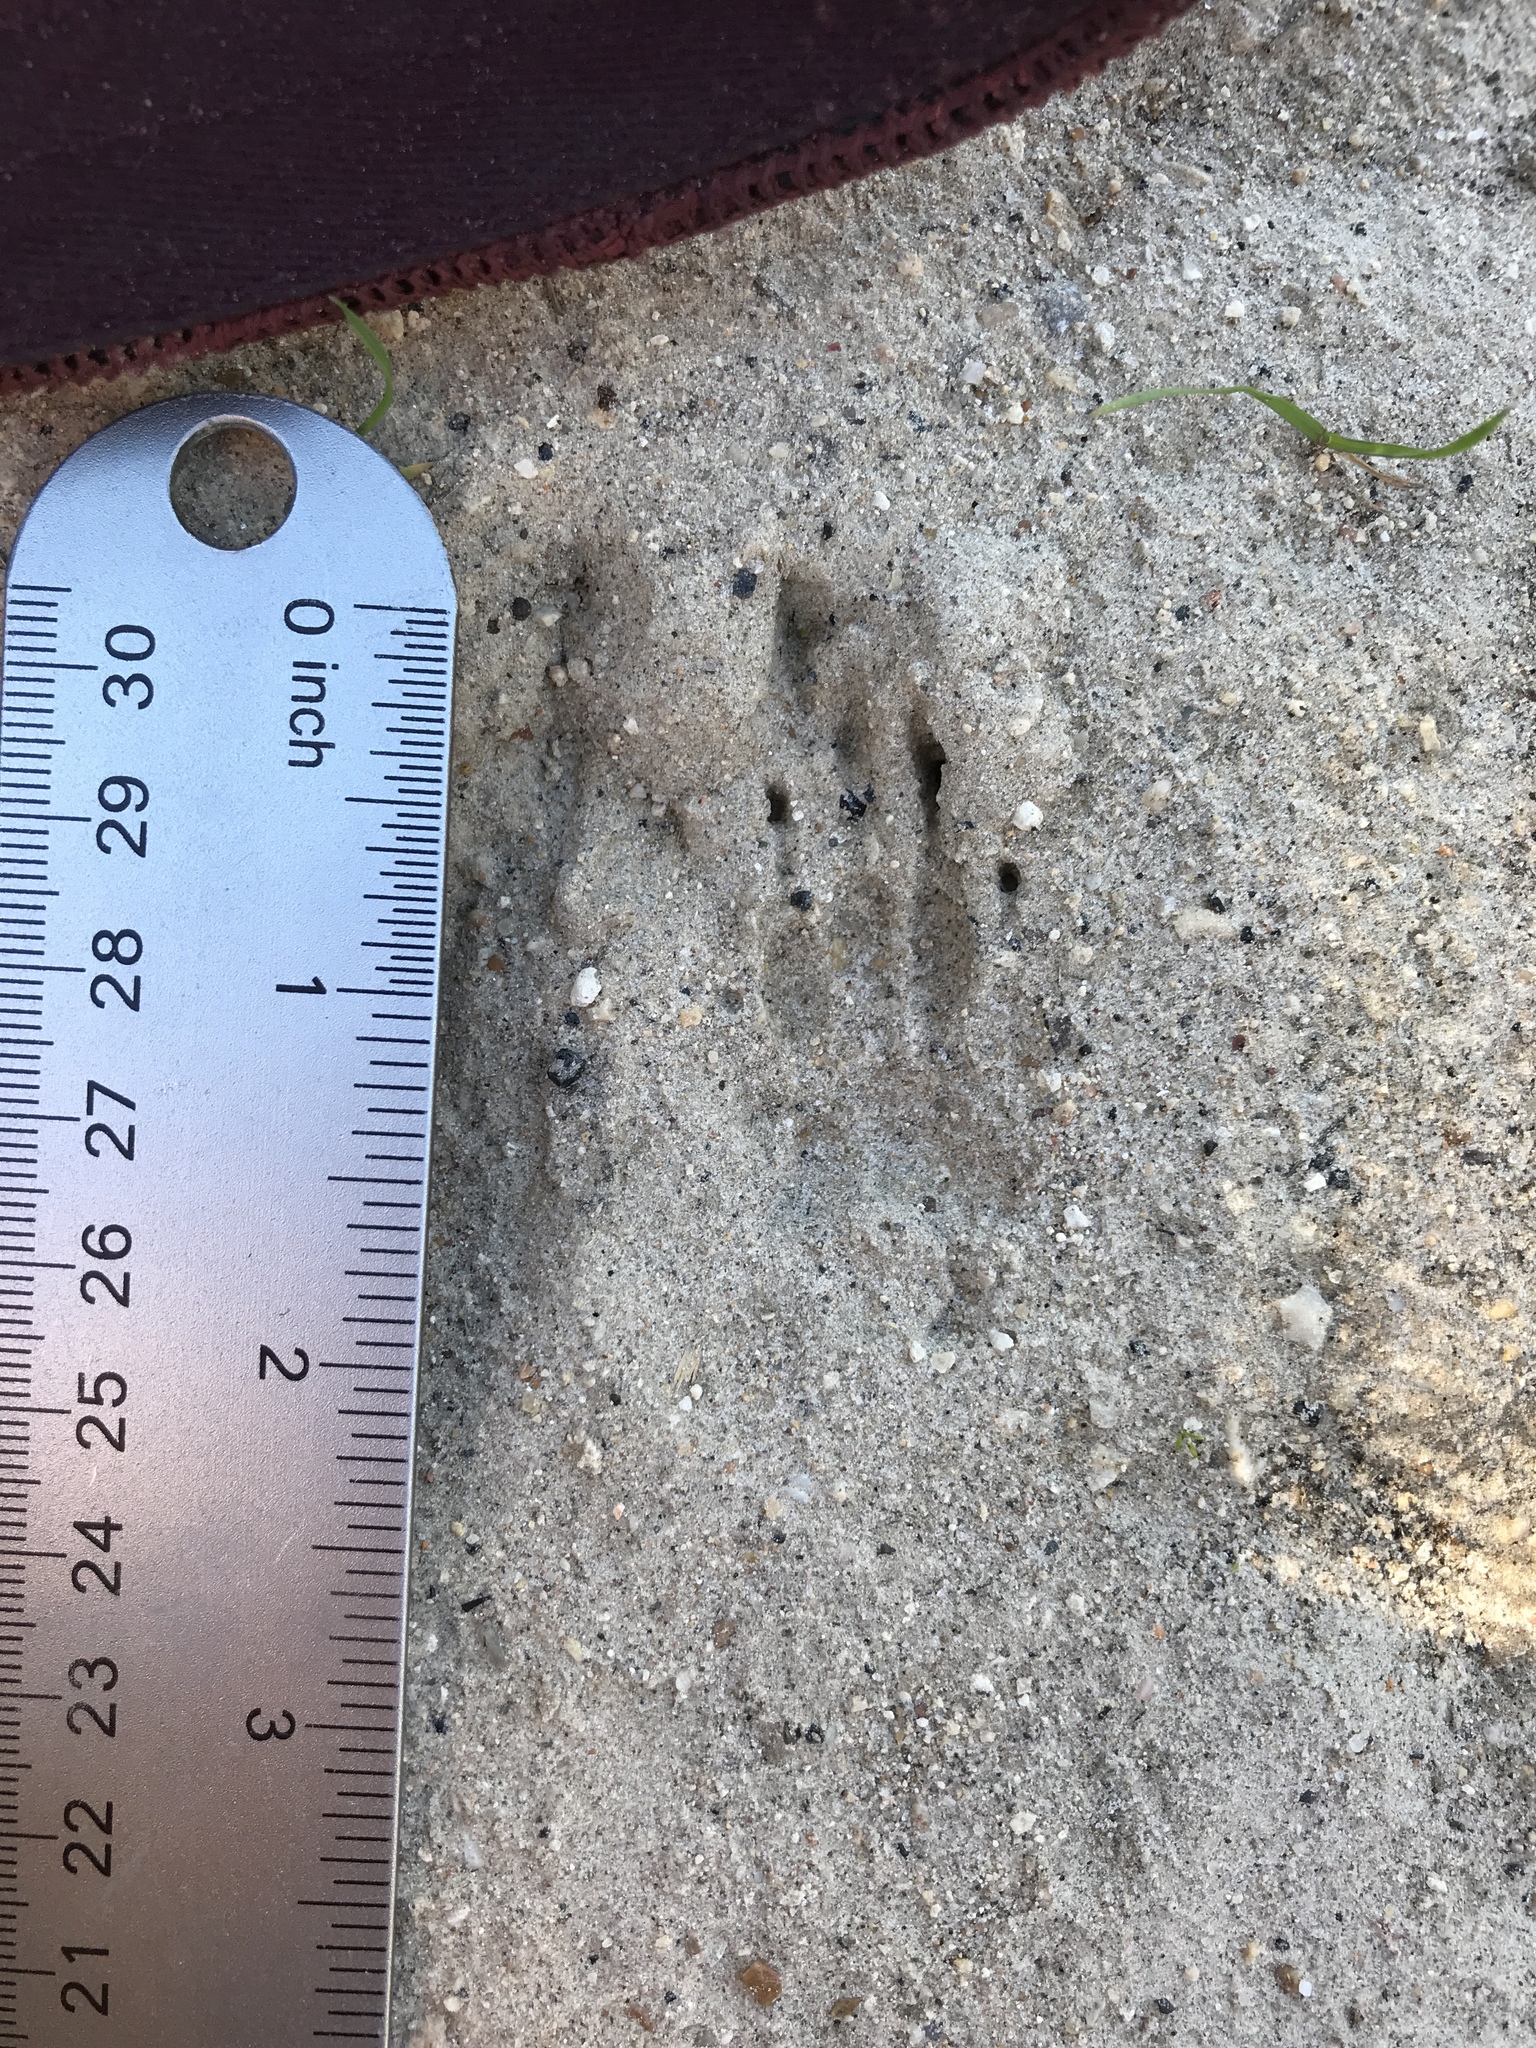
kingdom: Animalia
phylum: Chordata
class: Mammalia
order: Carnivora
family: Mephitidae
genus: Mephitis
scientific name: Mephitis mephitis
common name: Striped skunk
